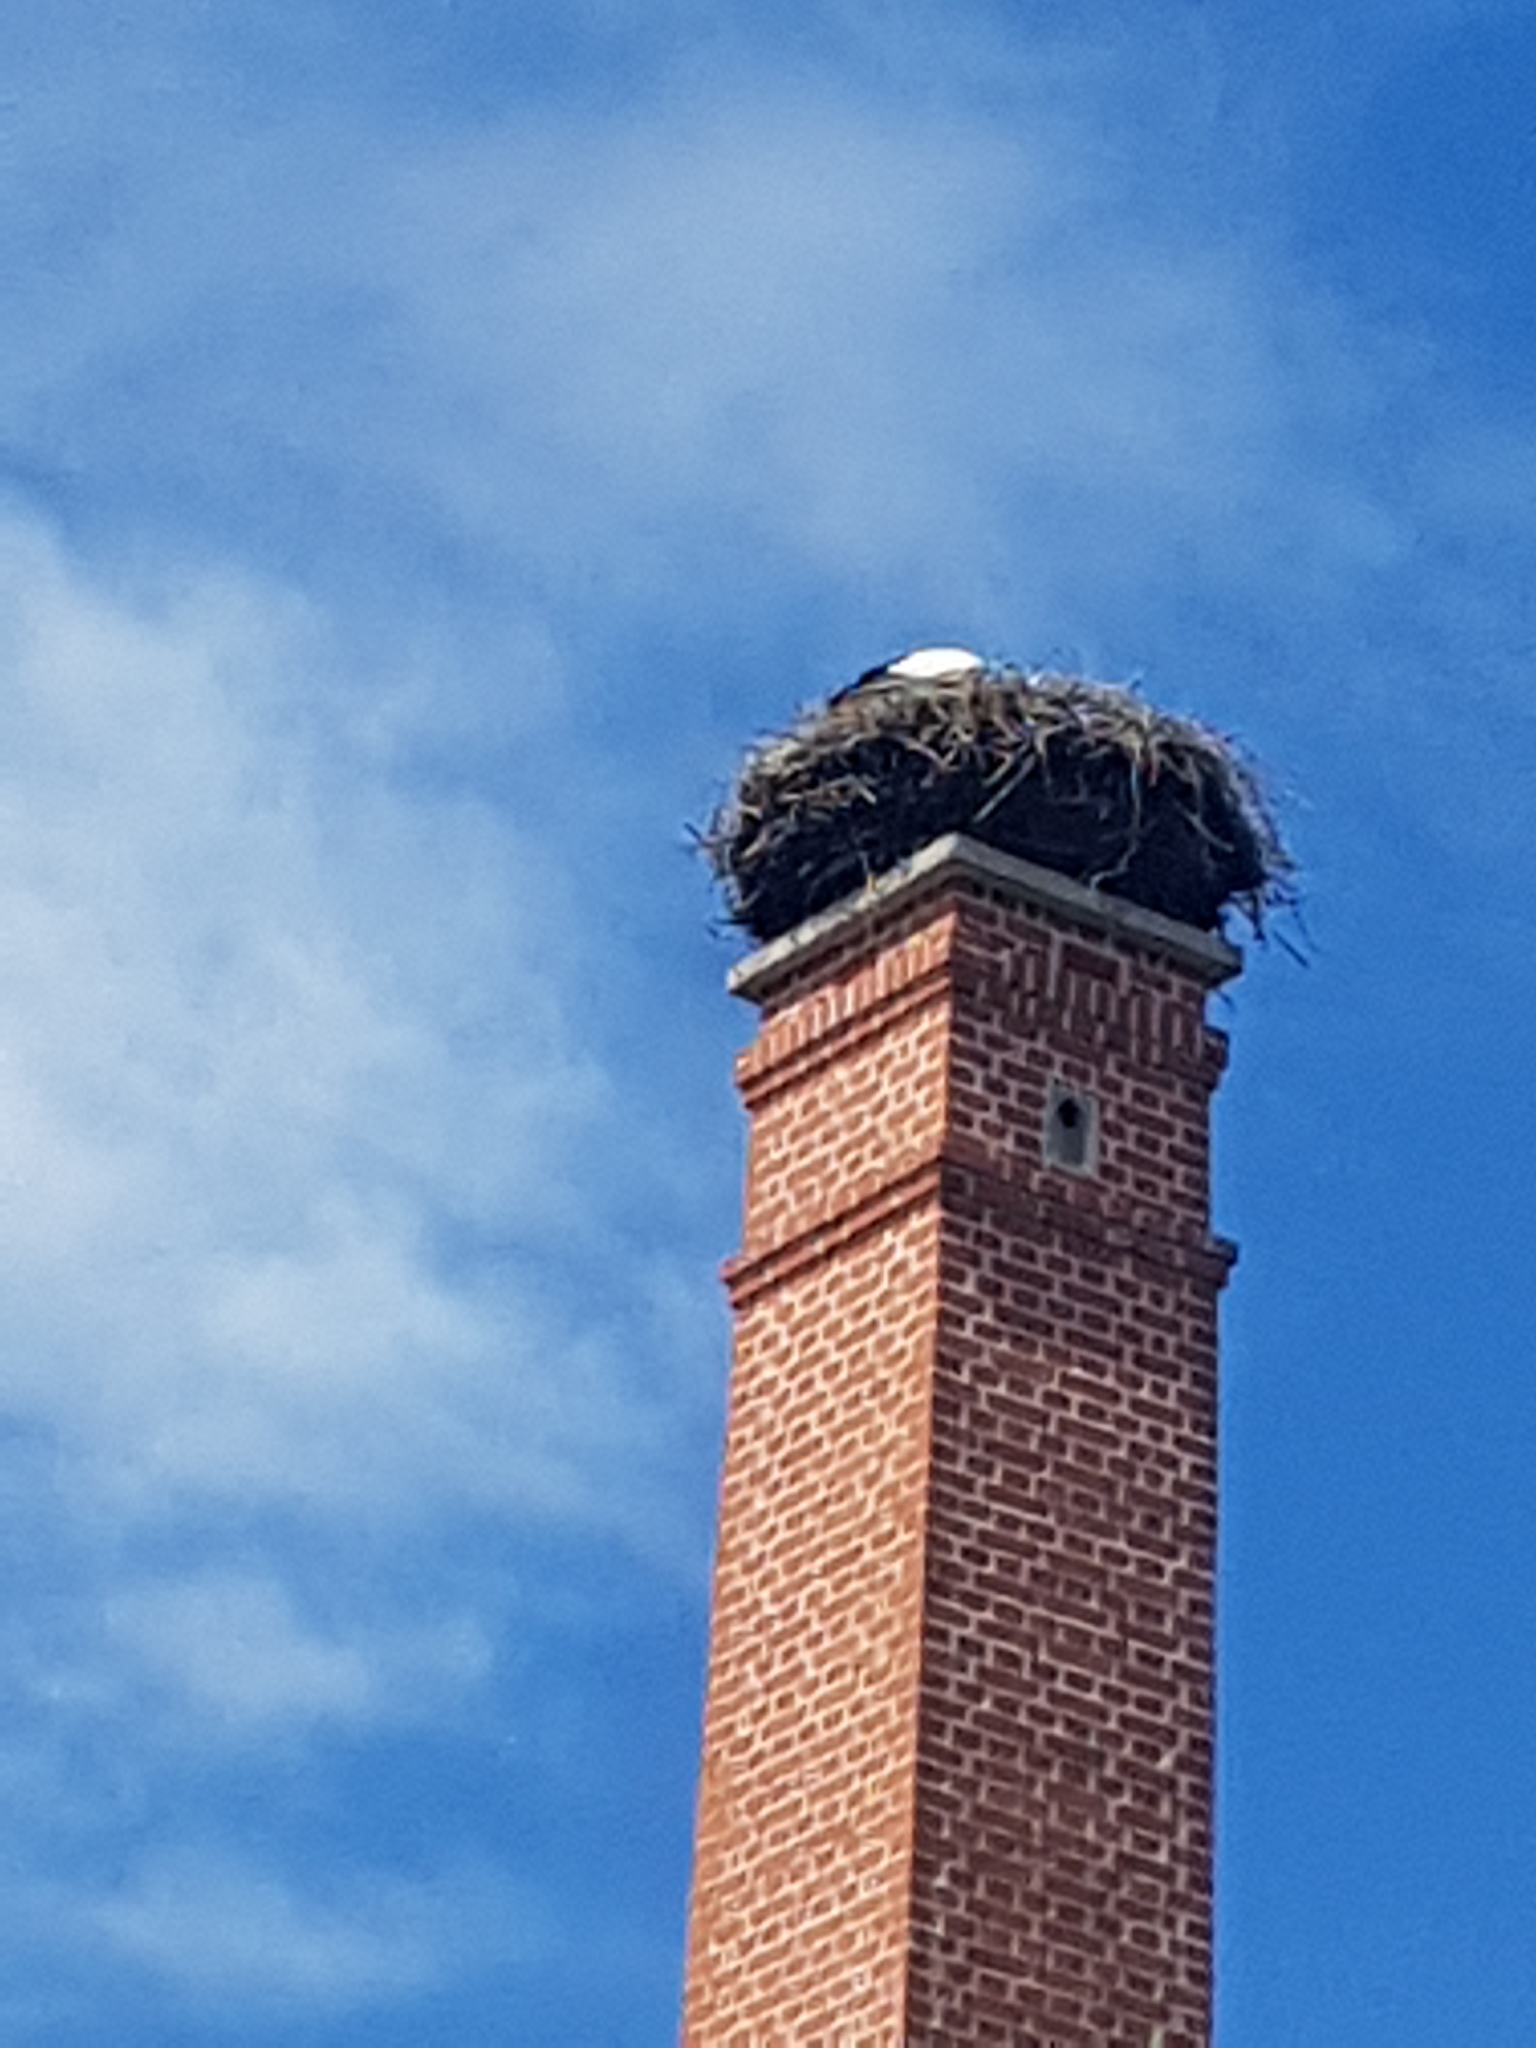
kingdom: Animalia
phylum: Chordata
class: Aves
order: Ciconiiformes
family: Ciconiidae
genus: Ciconia
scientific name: Ciconia ciconia
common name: White stork
